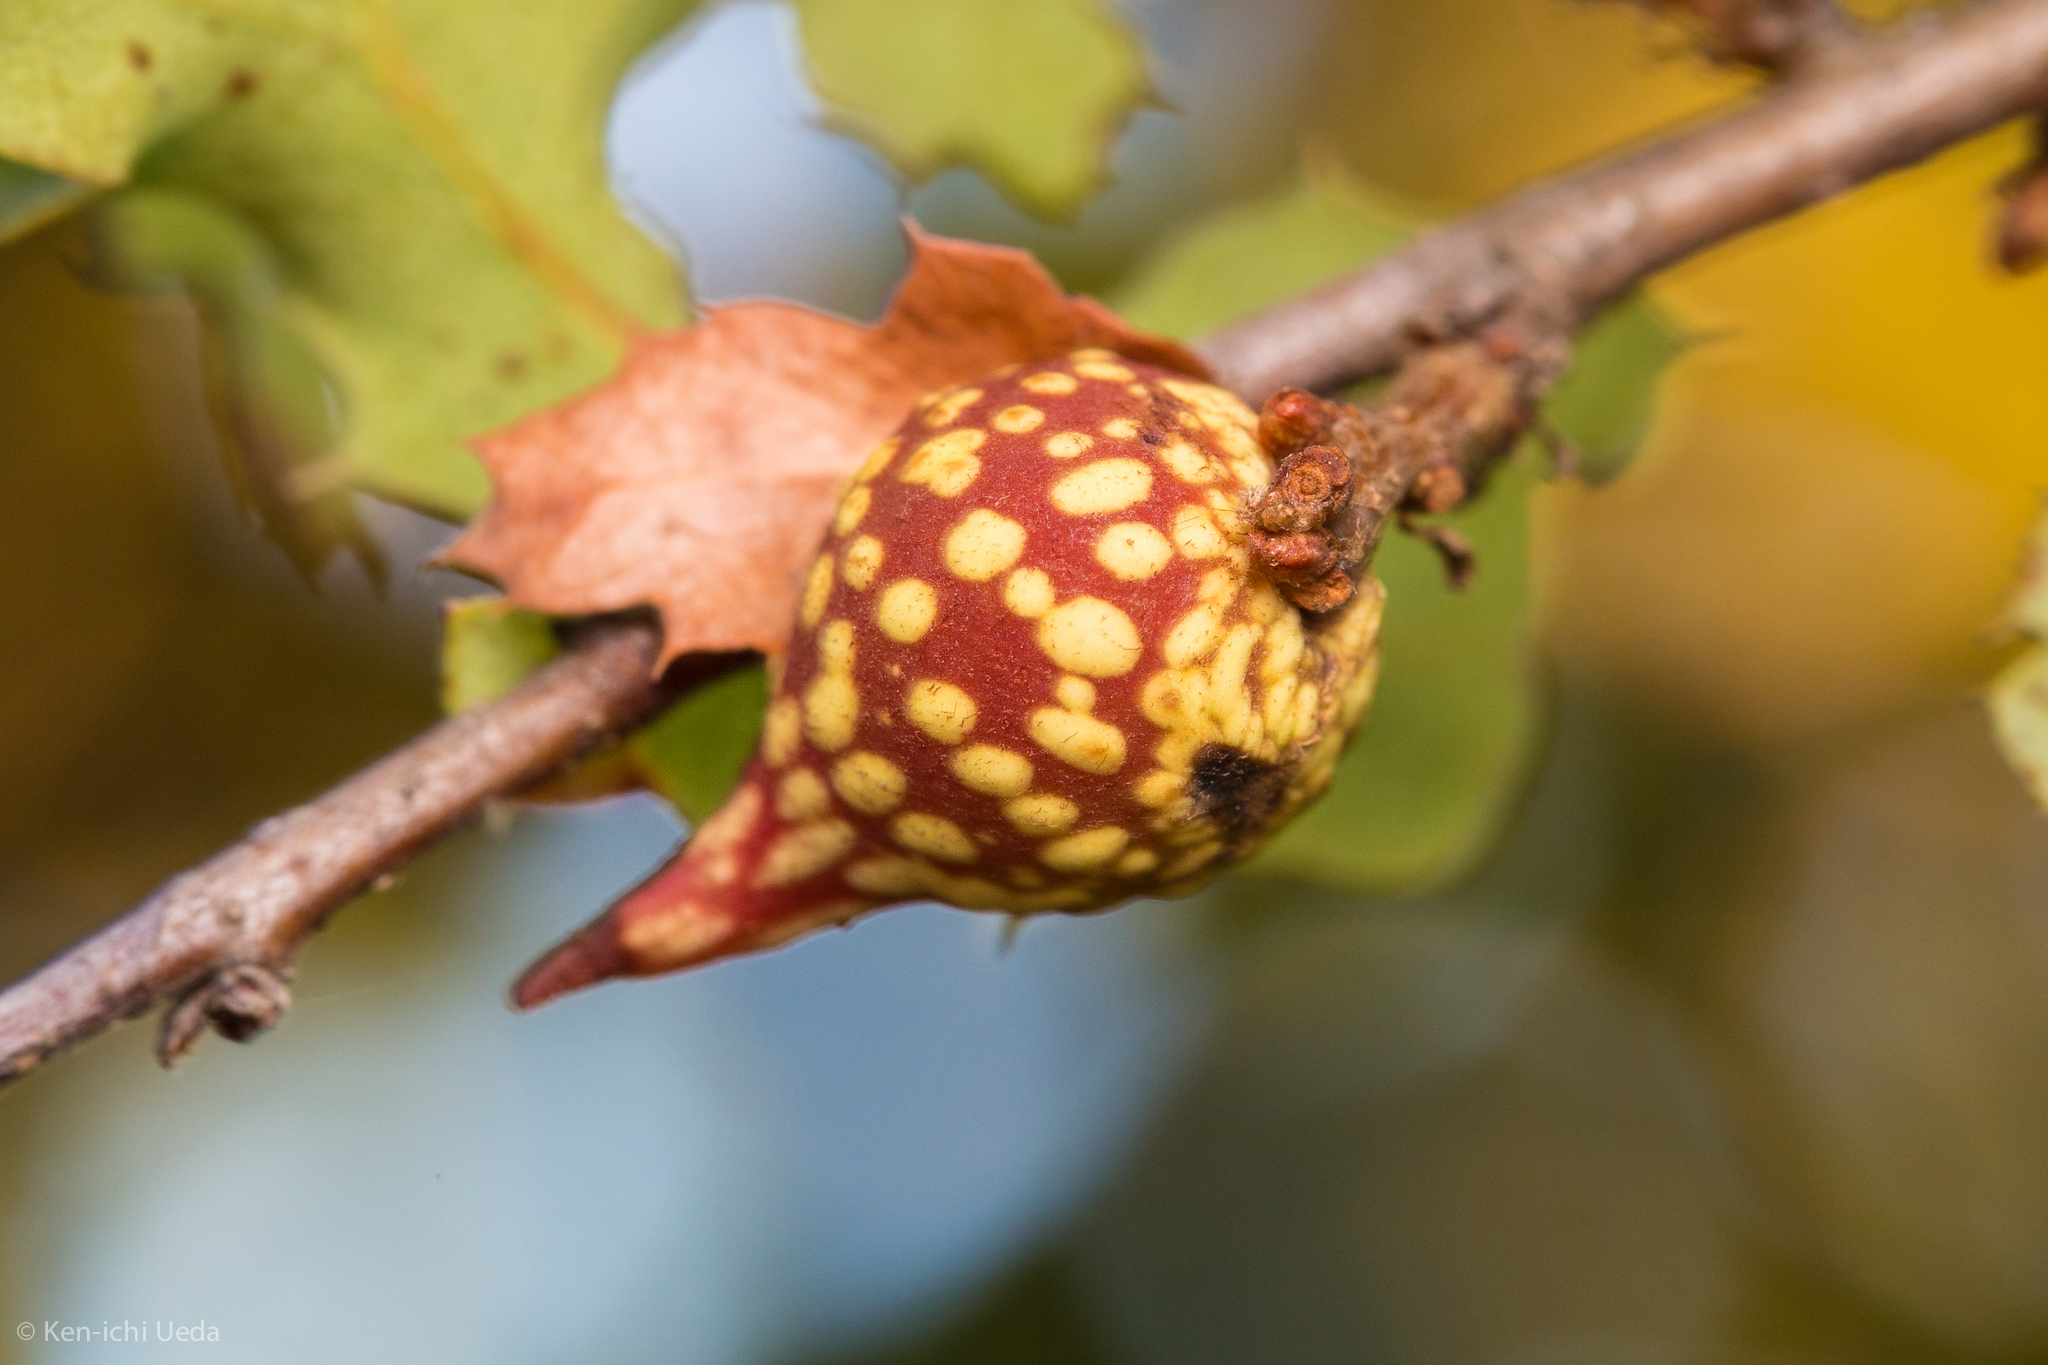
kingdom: Animalia
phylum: Arthropoda
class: Insecta
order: Hymenoptera
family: Cynipidae
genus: Burnettweldia
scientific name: Burnettweldia
